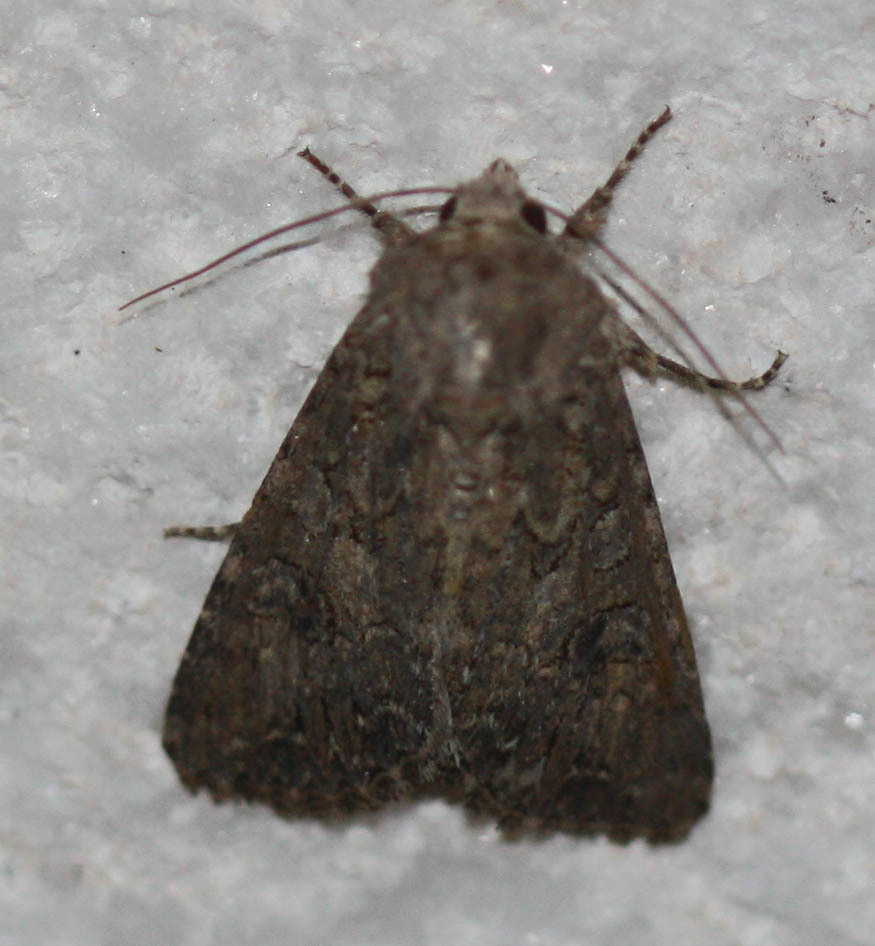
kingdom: Animalia
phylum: Arthropoda
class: Insecta
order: Lepidoptera
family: Noctuidae
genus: Anarta
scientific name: Anarta trifolii
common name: Clover cutworm moth
